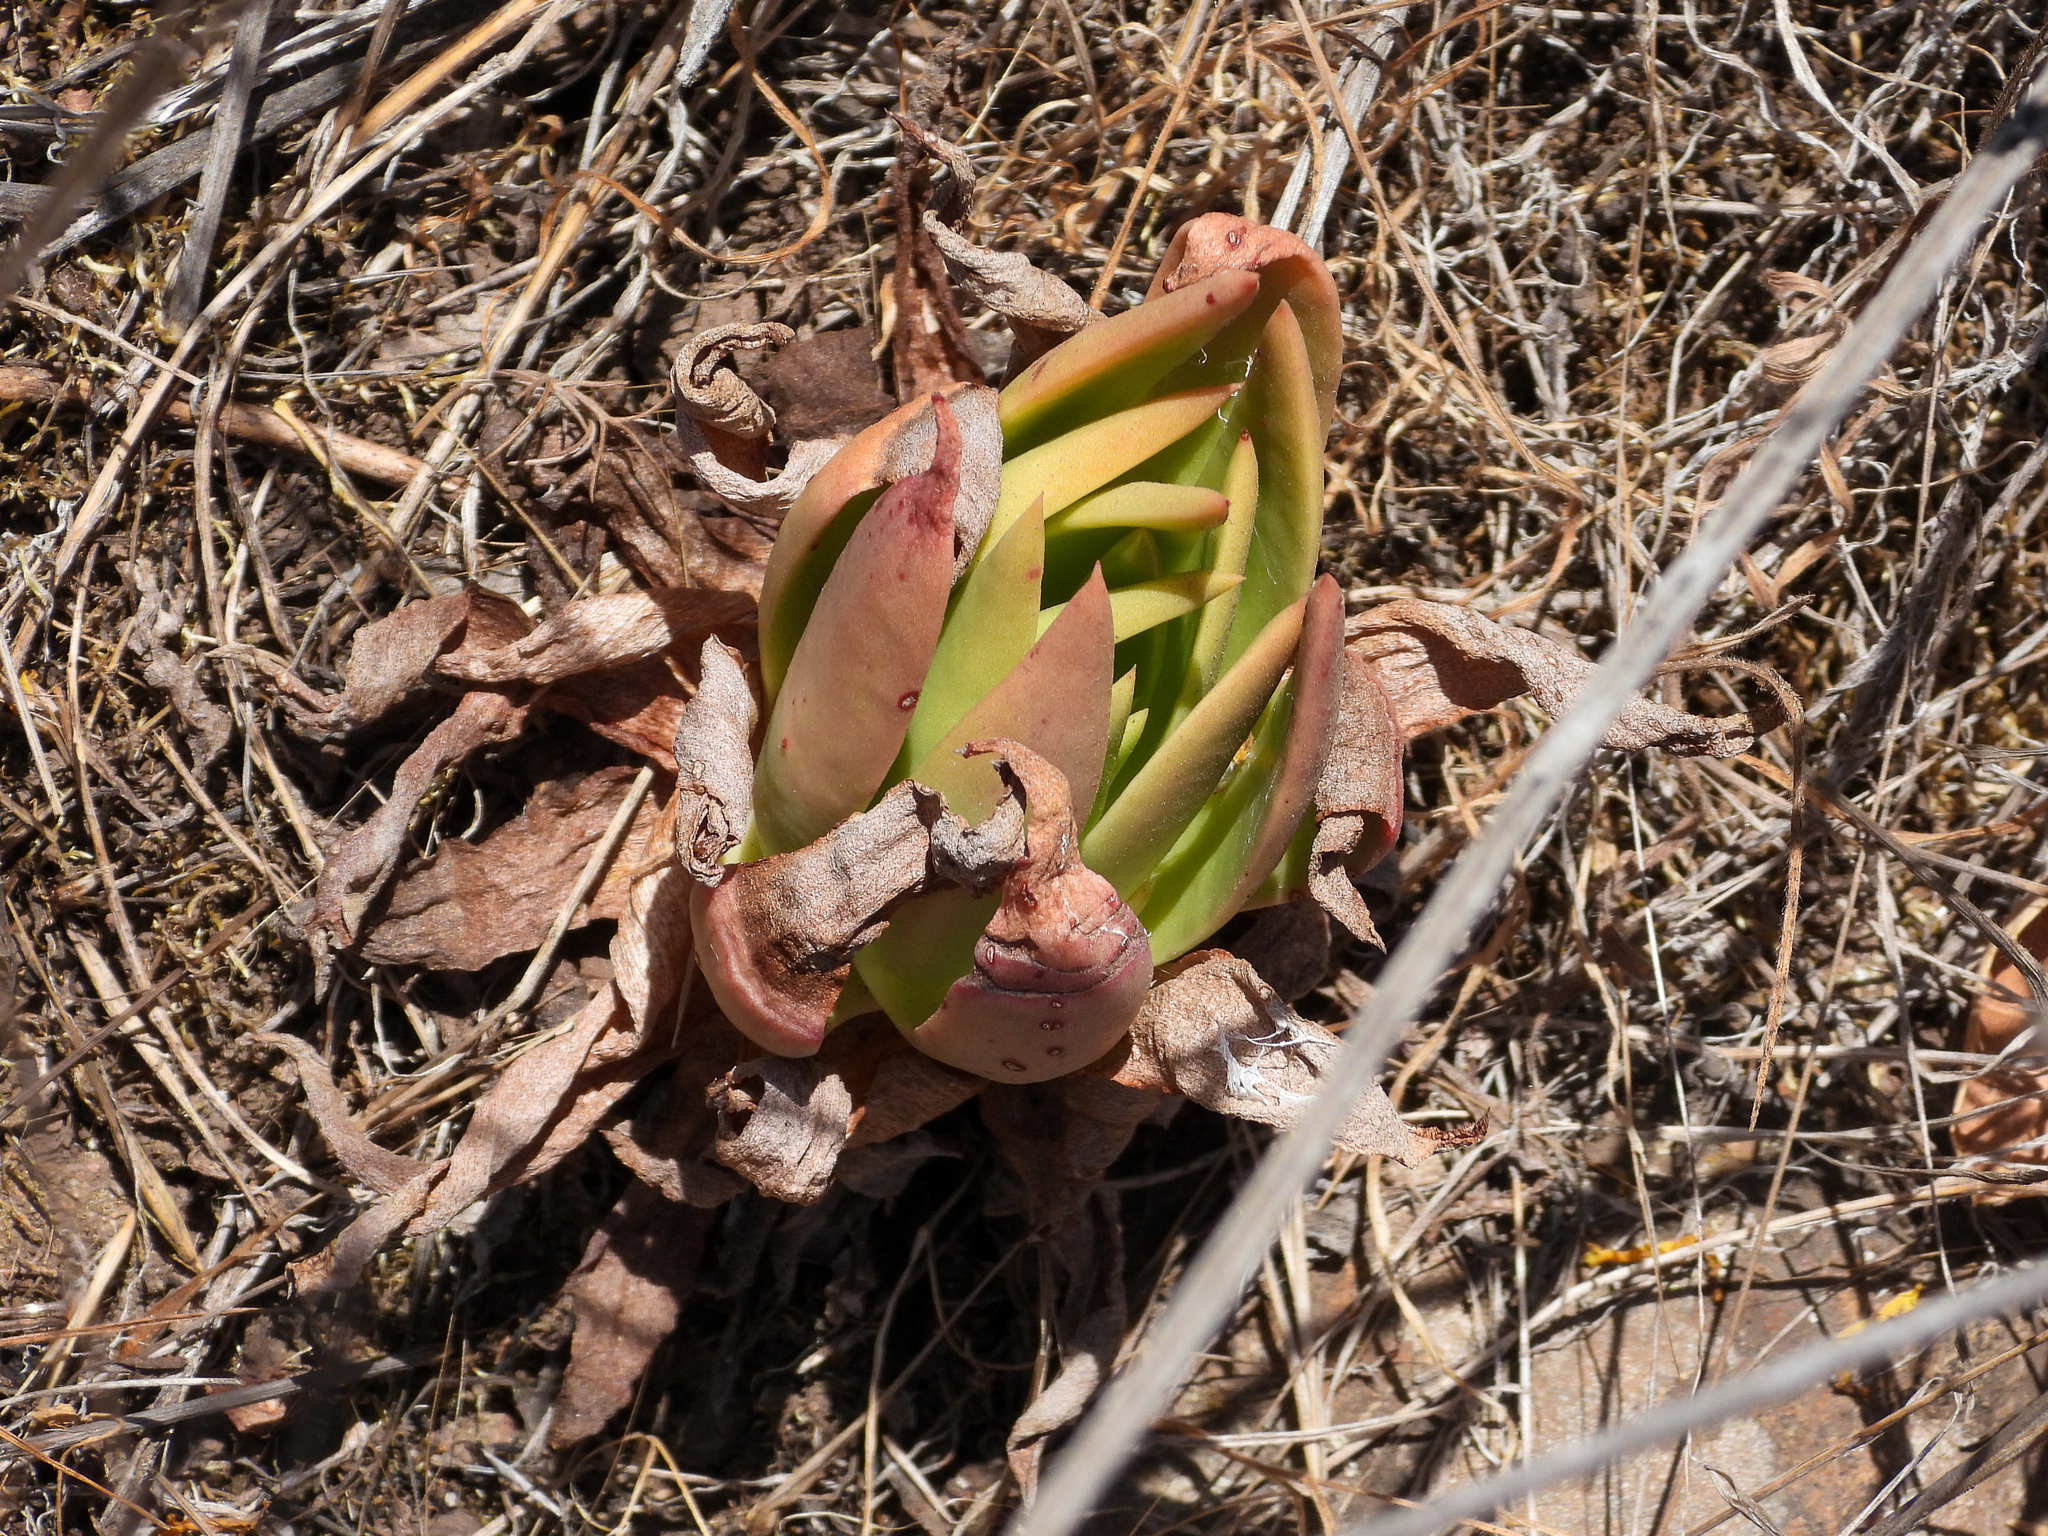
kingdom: Plantae
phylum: Tracheophyta
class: Magnoliopsida
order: Saxifragales
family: Crassulaceae
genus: Dudleya
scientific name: Dudleya candelabrum
